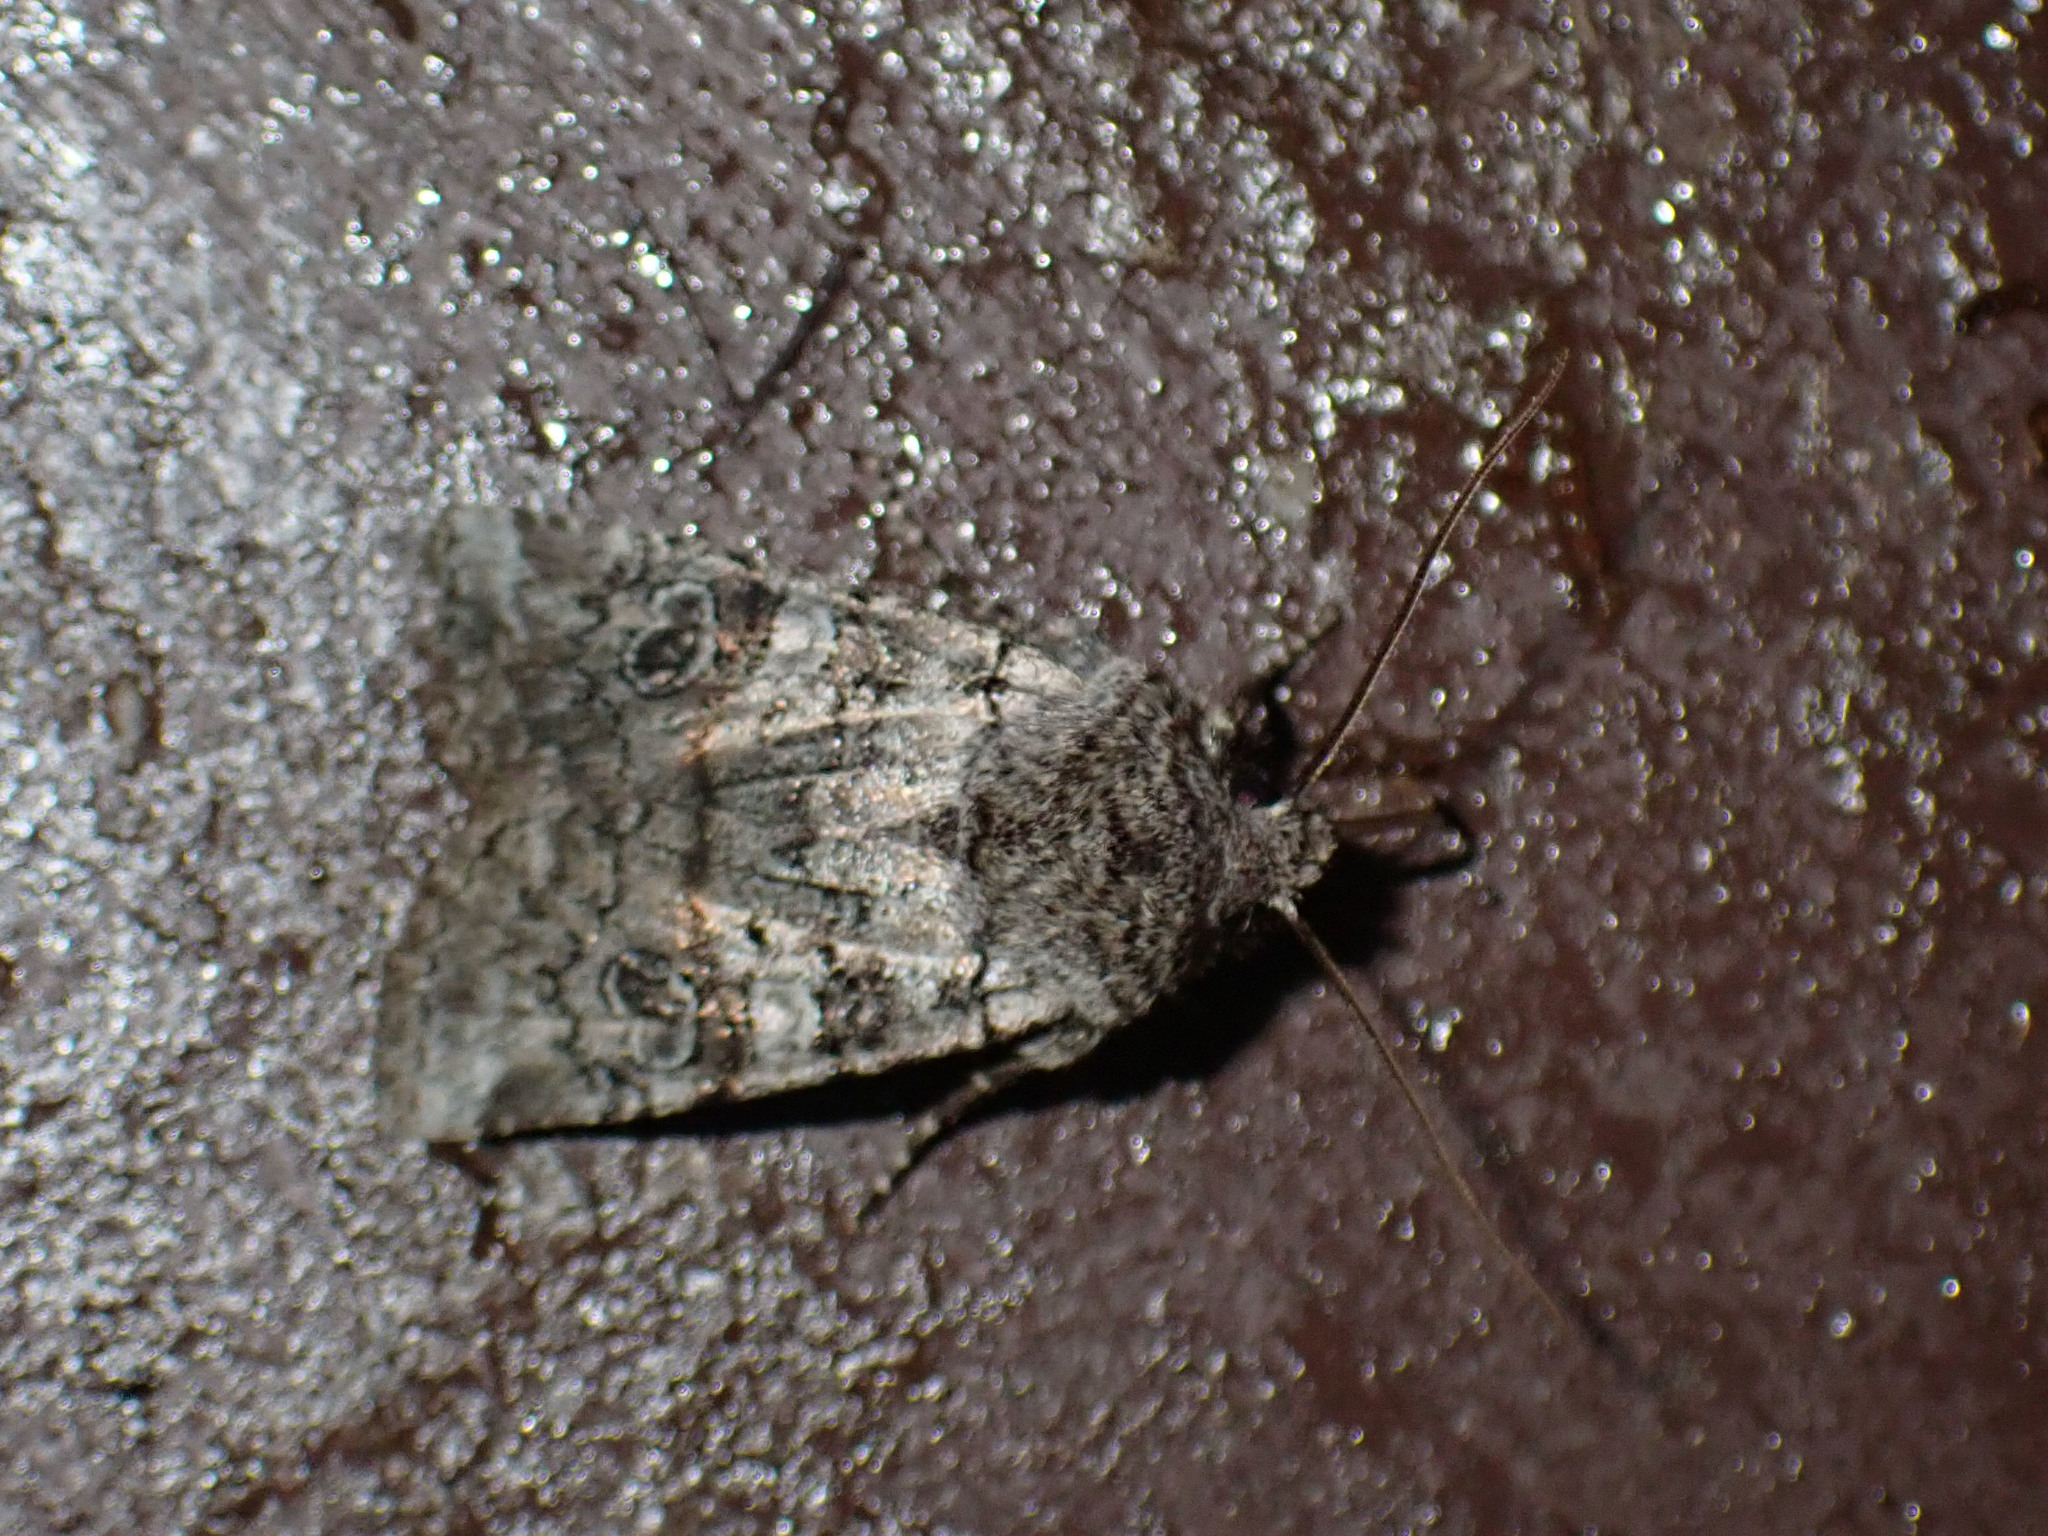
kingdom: Animalia
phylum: Arthropoda
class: Insecta
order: Lepidoptera
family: Noctuidae
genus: Litholomia
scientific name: Litholomia napaea
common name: False pinion moth
